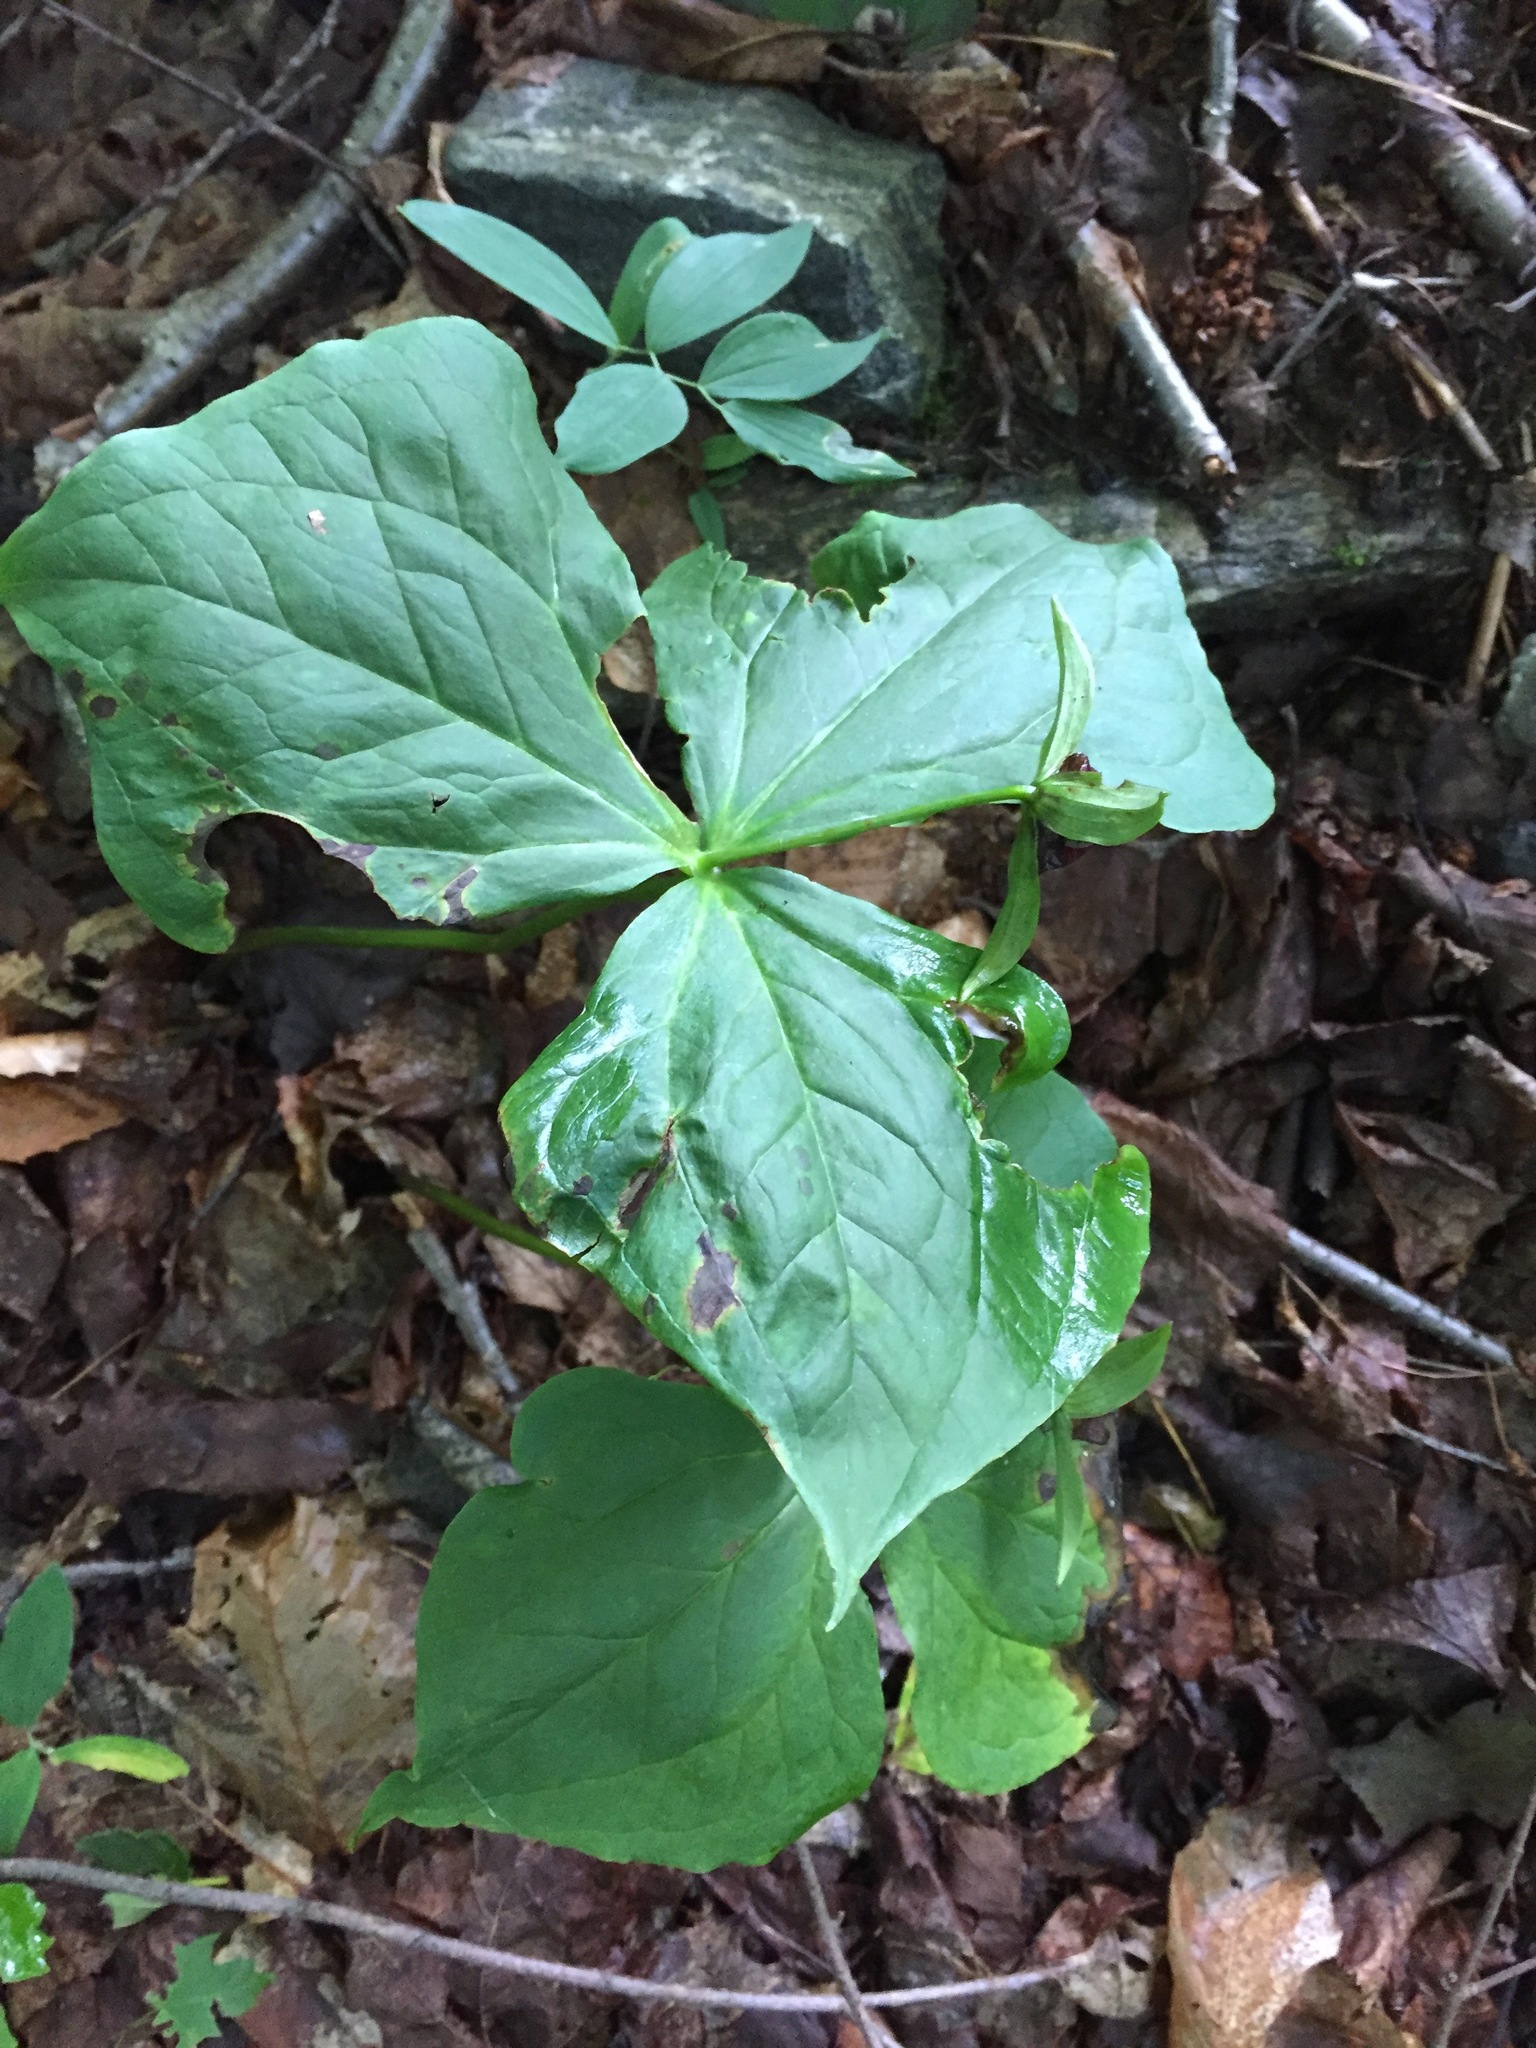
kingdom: Plantae
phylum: Tracheophyta
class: Liliopsida
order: Liliales
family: Melanthiaceae
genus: Trillium
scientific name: Trillium erectum
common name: Purple trillium
